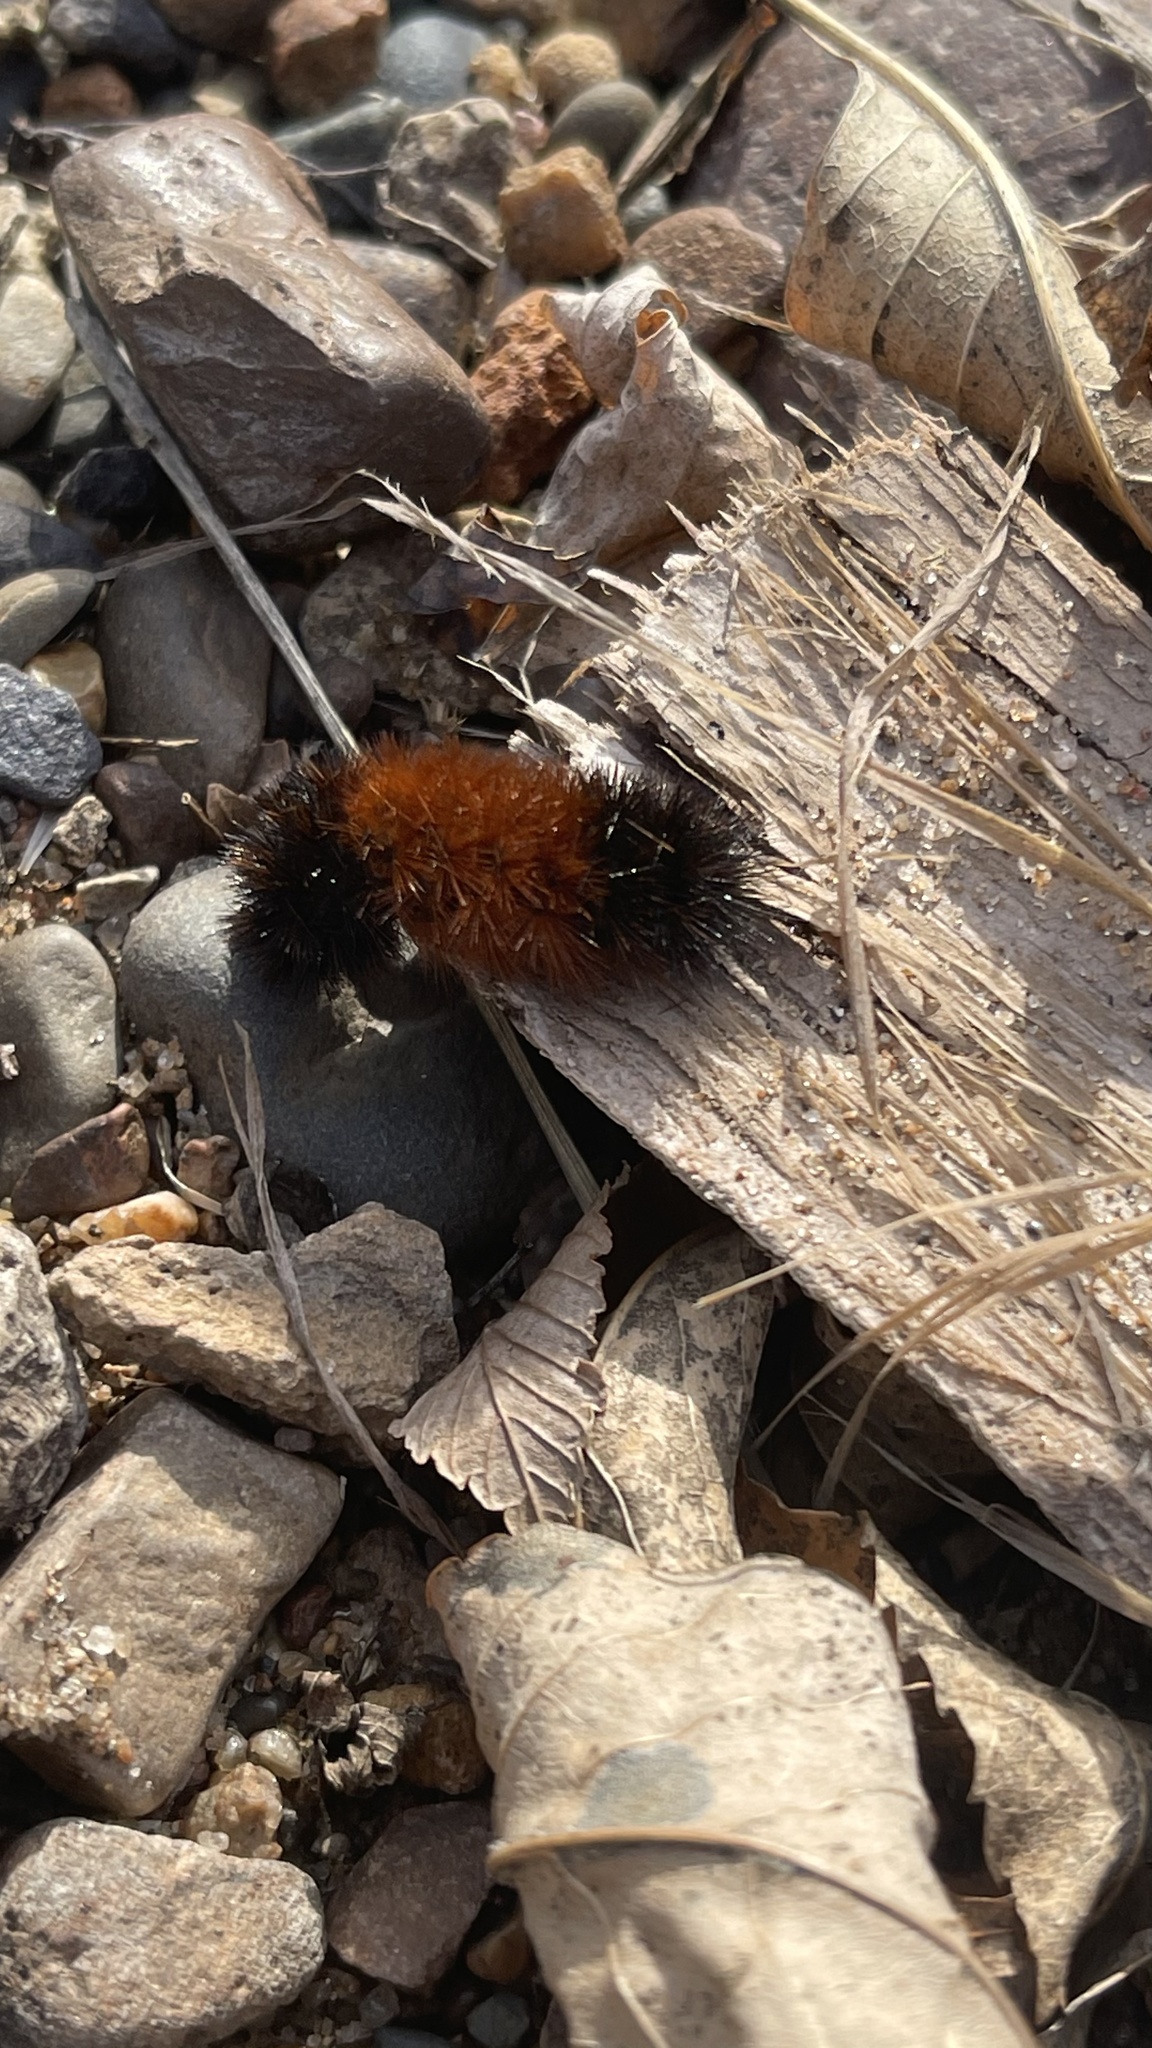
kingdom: Animalia
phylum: Arthropoda
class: Insecta
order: Lepidoptera
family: Erebidae
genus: Pyrrharctia
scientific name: Pyrrharctia isabella
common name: Isabella tiger moth
